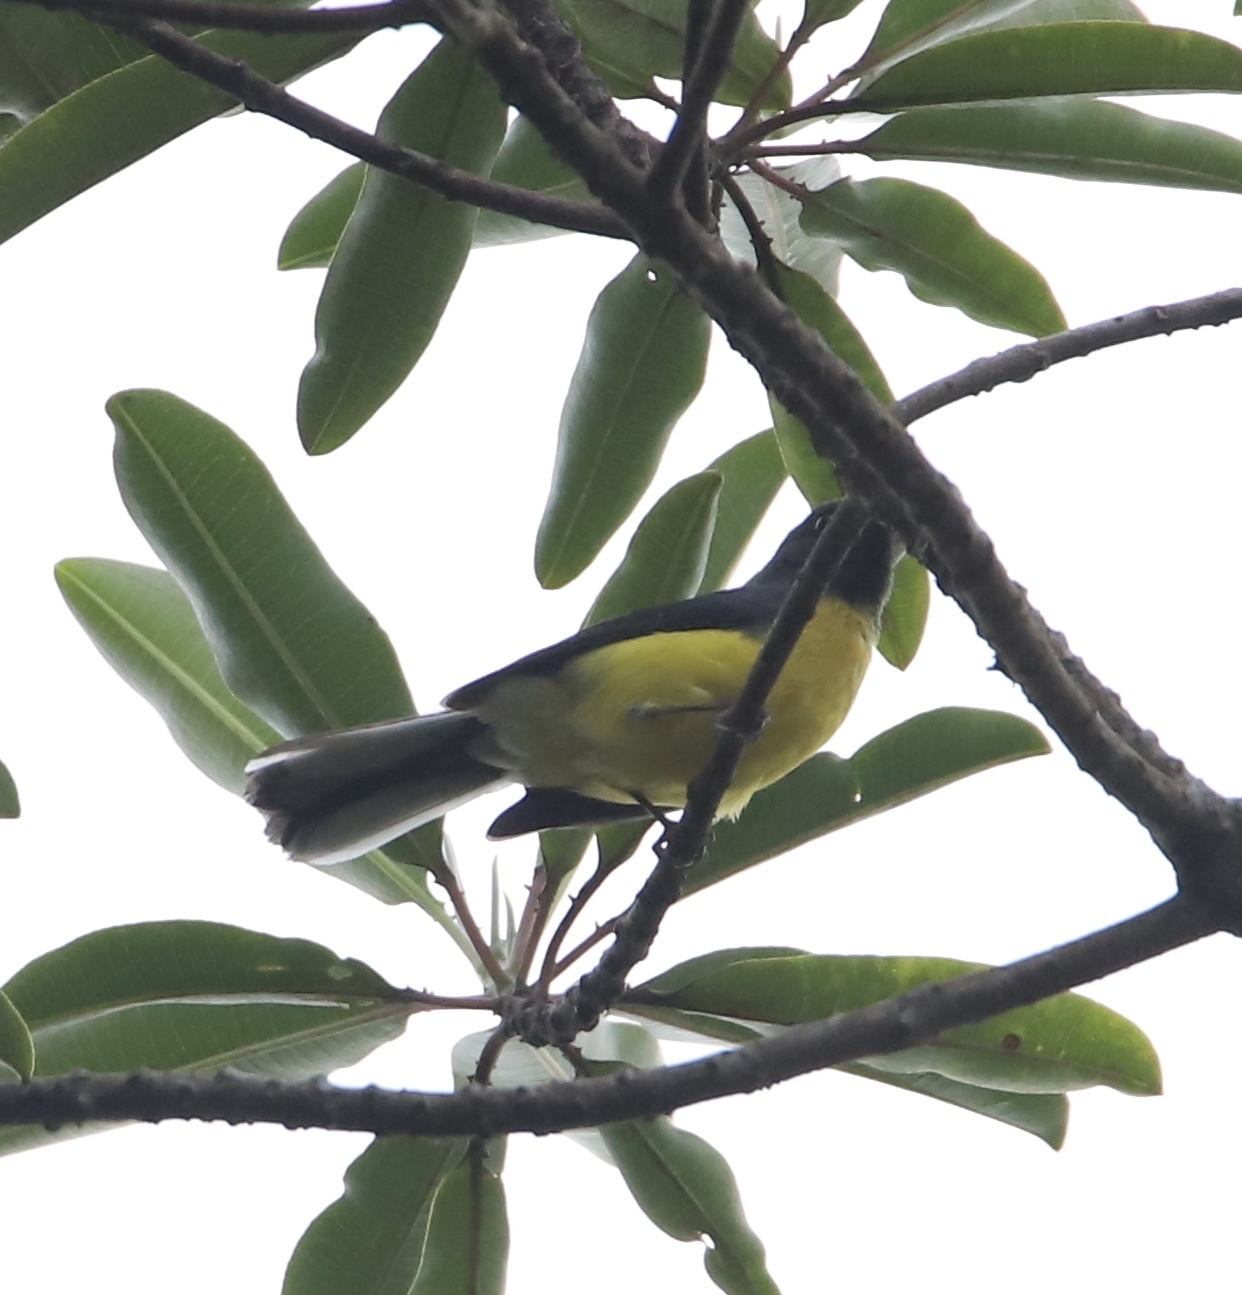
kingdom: Animalia
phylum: Chordata
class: Aves
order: Passeriformes
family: Parulidae
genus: Myioborus
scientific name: Myioborus miniatus
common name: Slate-throated redstart
